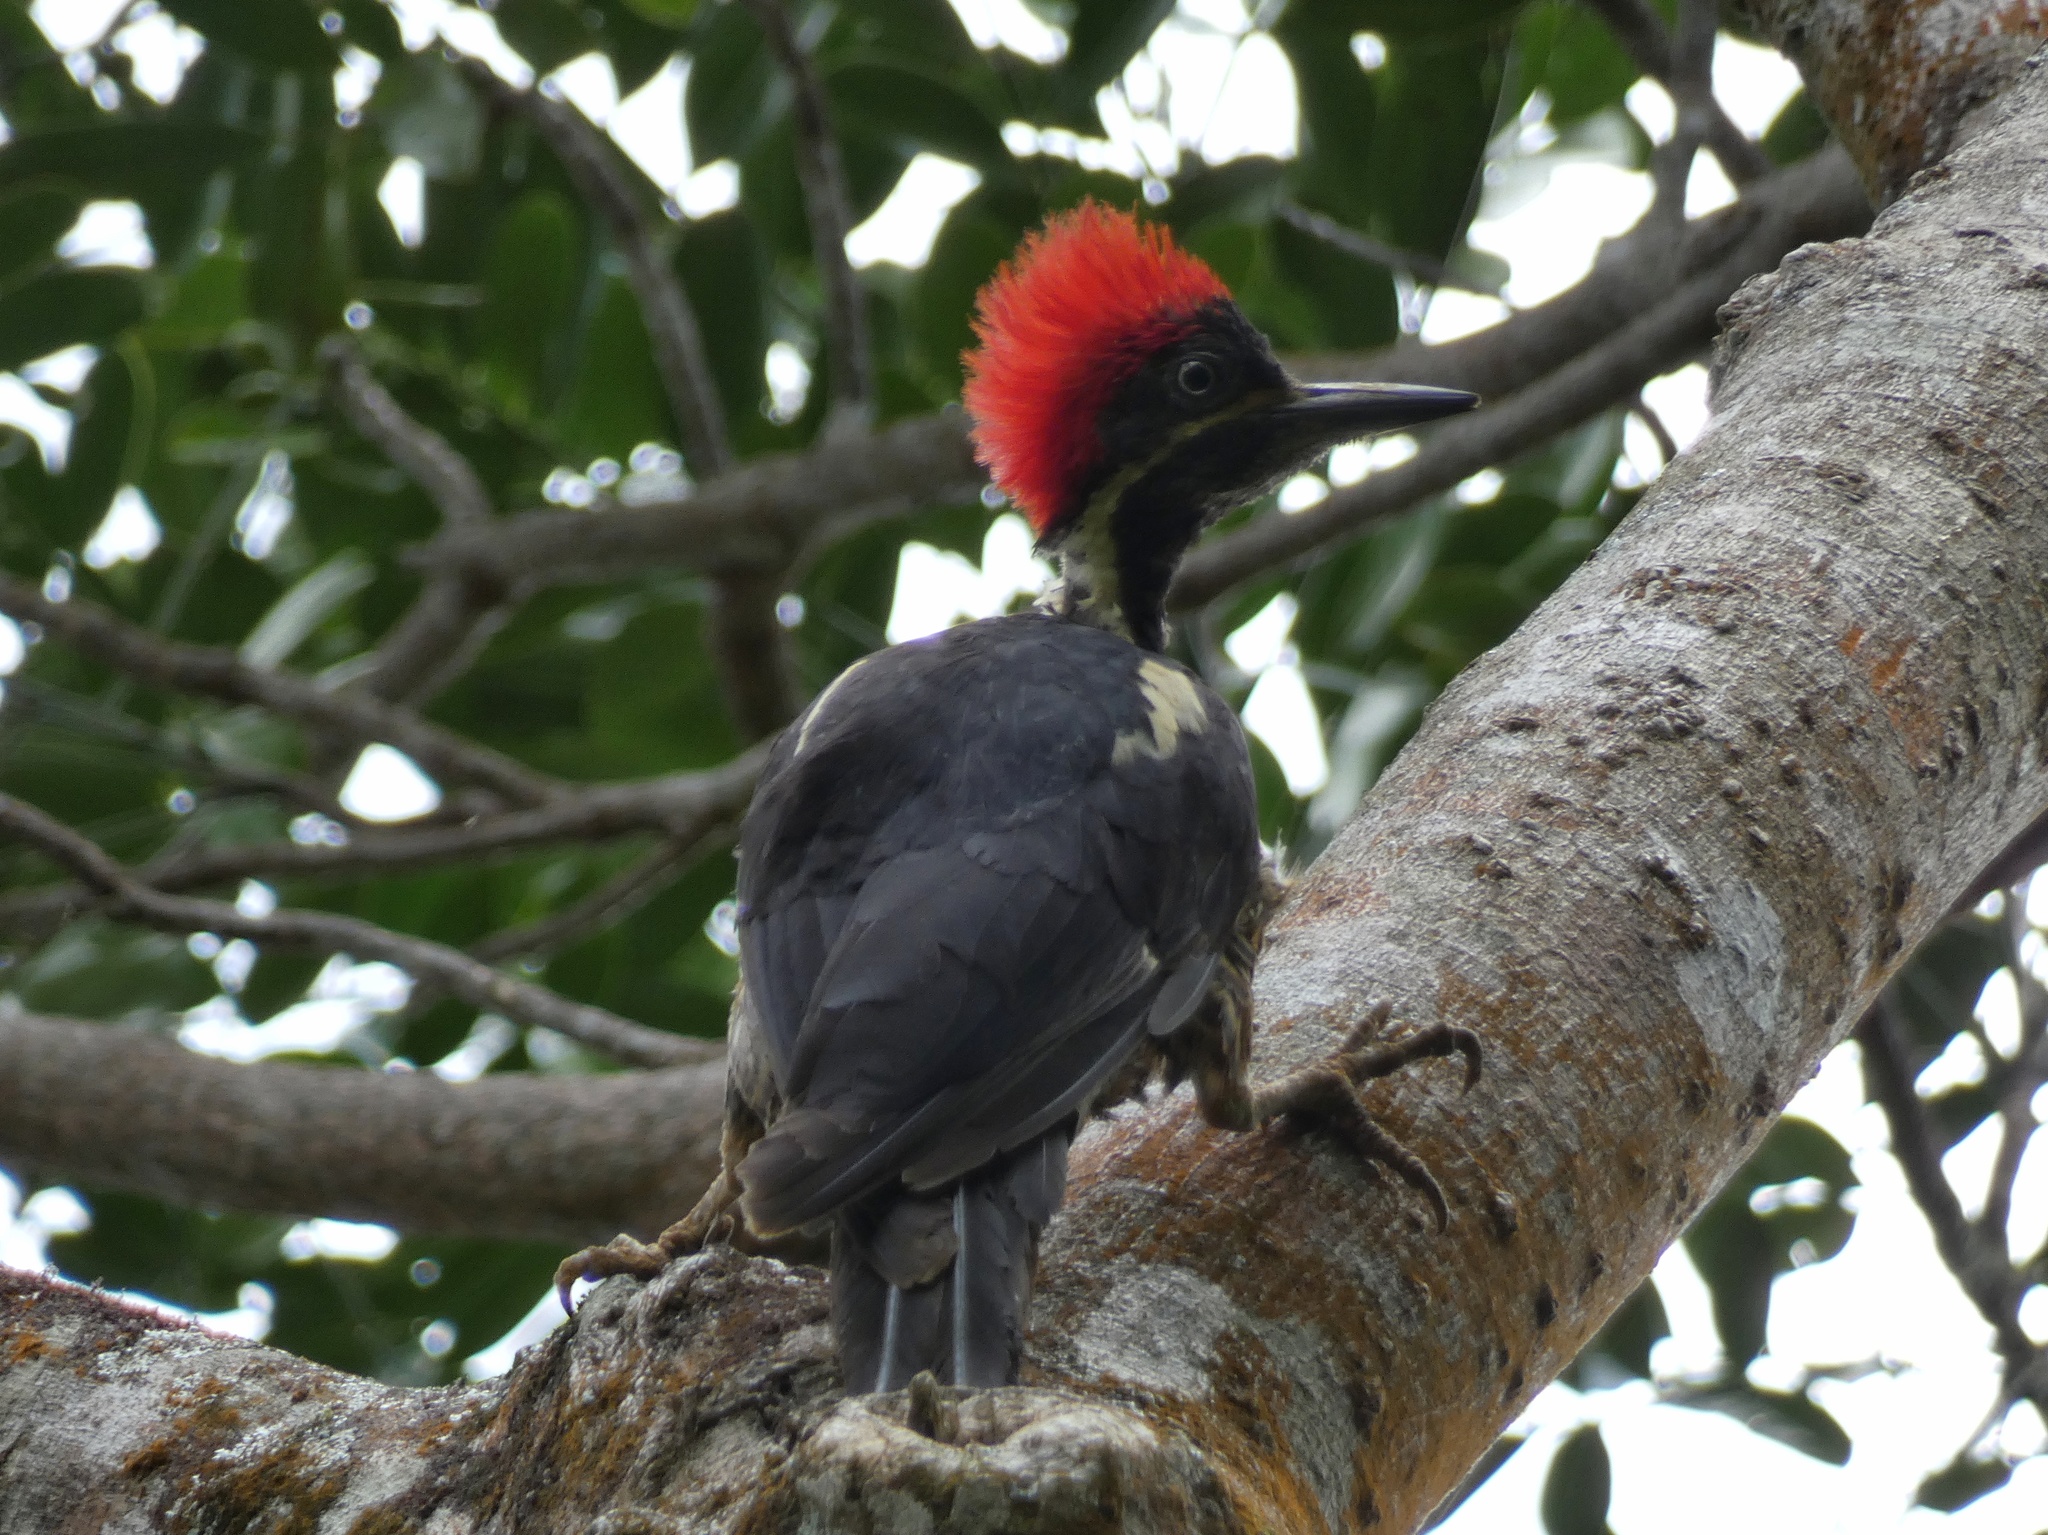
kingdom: Animalia
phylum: Chordata
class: Aves
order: Piciformes
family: Picidae
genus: Dryocopus
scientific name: Dryocopus lineatus
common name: Lineated woodpecker
